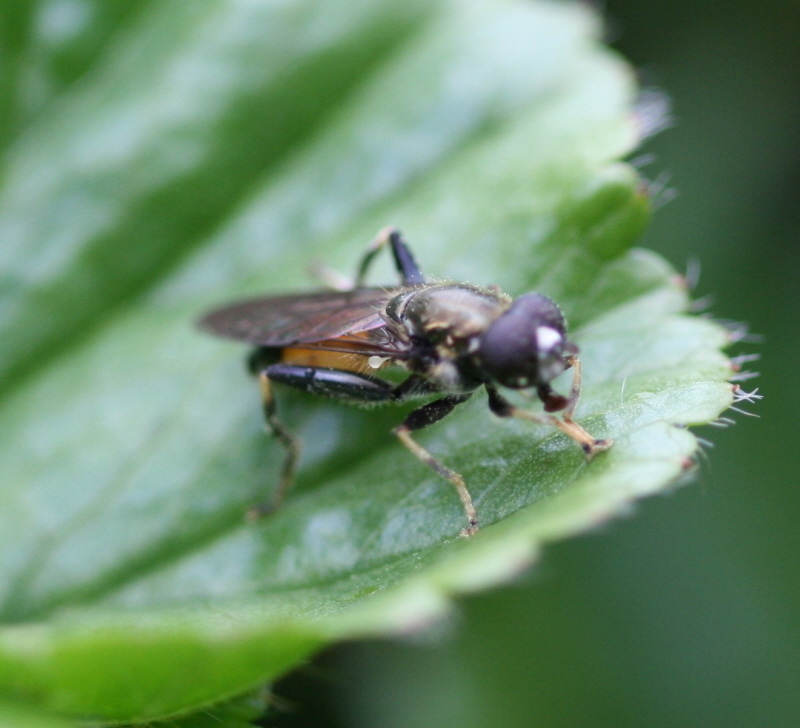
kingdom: Animalia
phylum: Arthropoda
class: Insecta
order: Diptera
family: Syrphidae
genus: Xylota
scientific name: Xylota segnis
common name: Brown-toed forest fly
